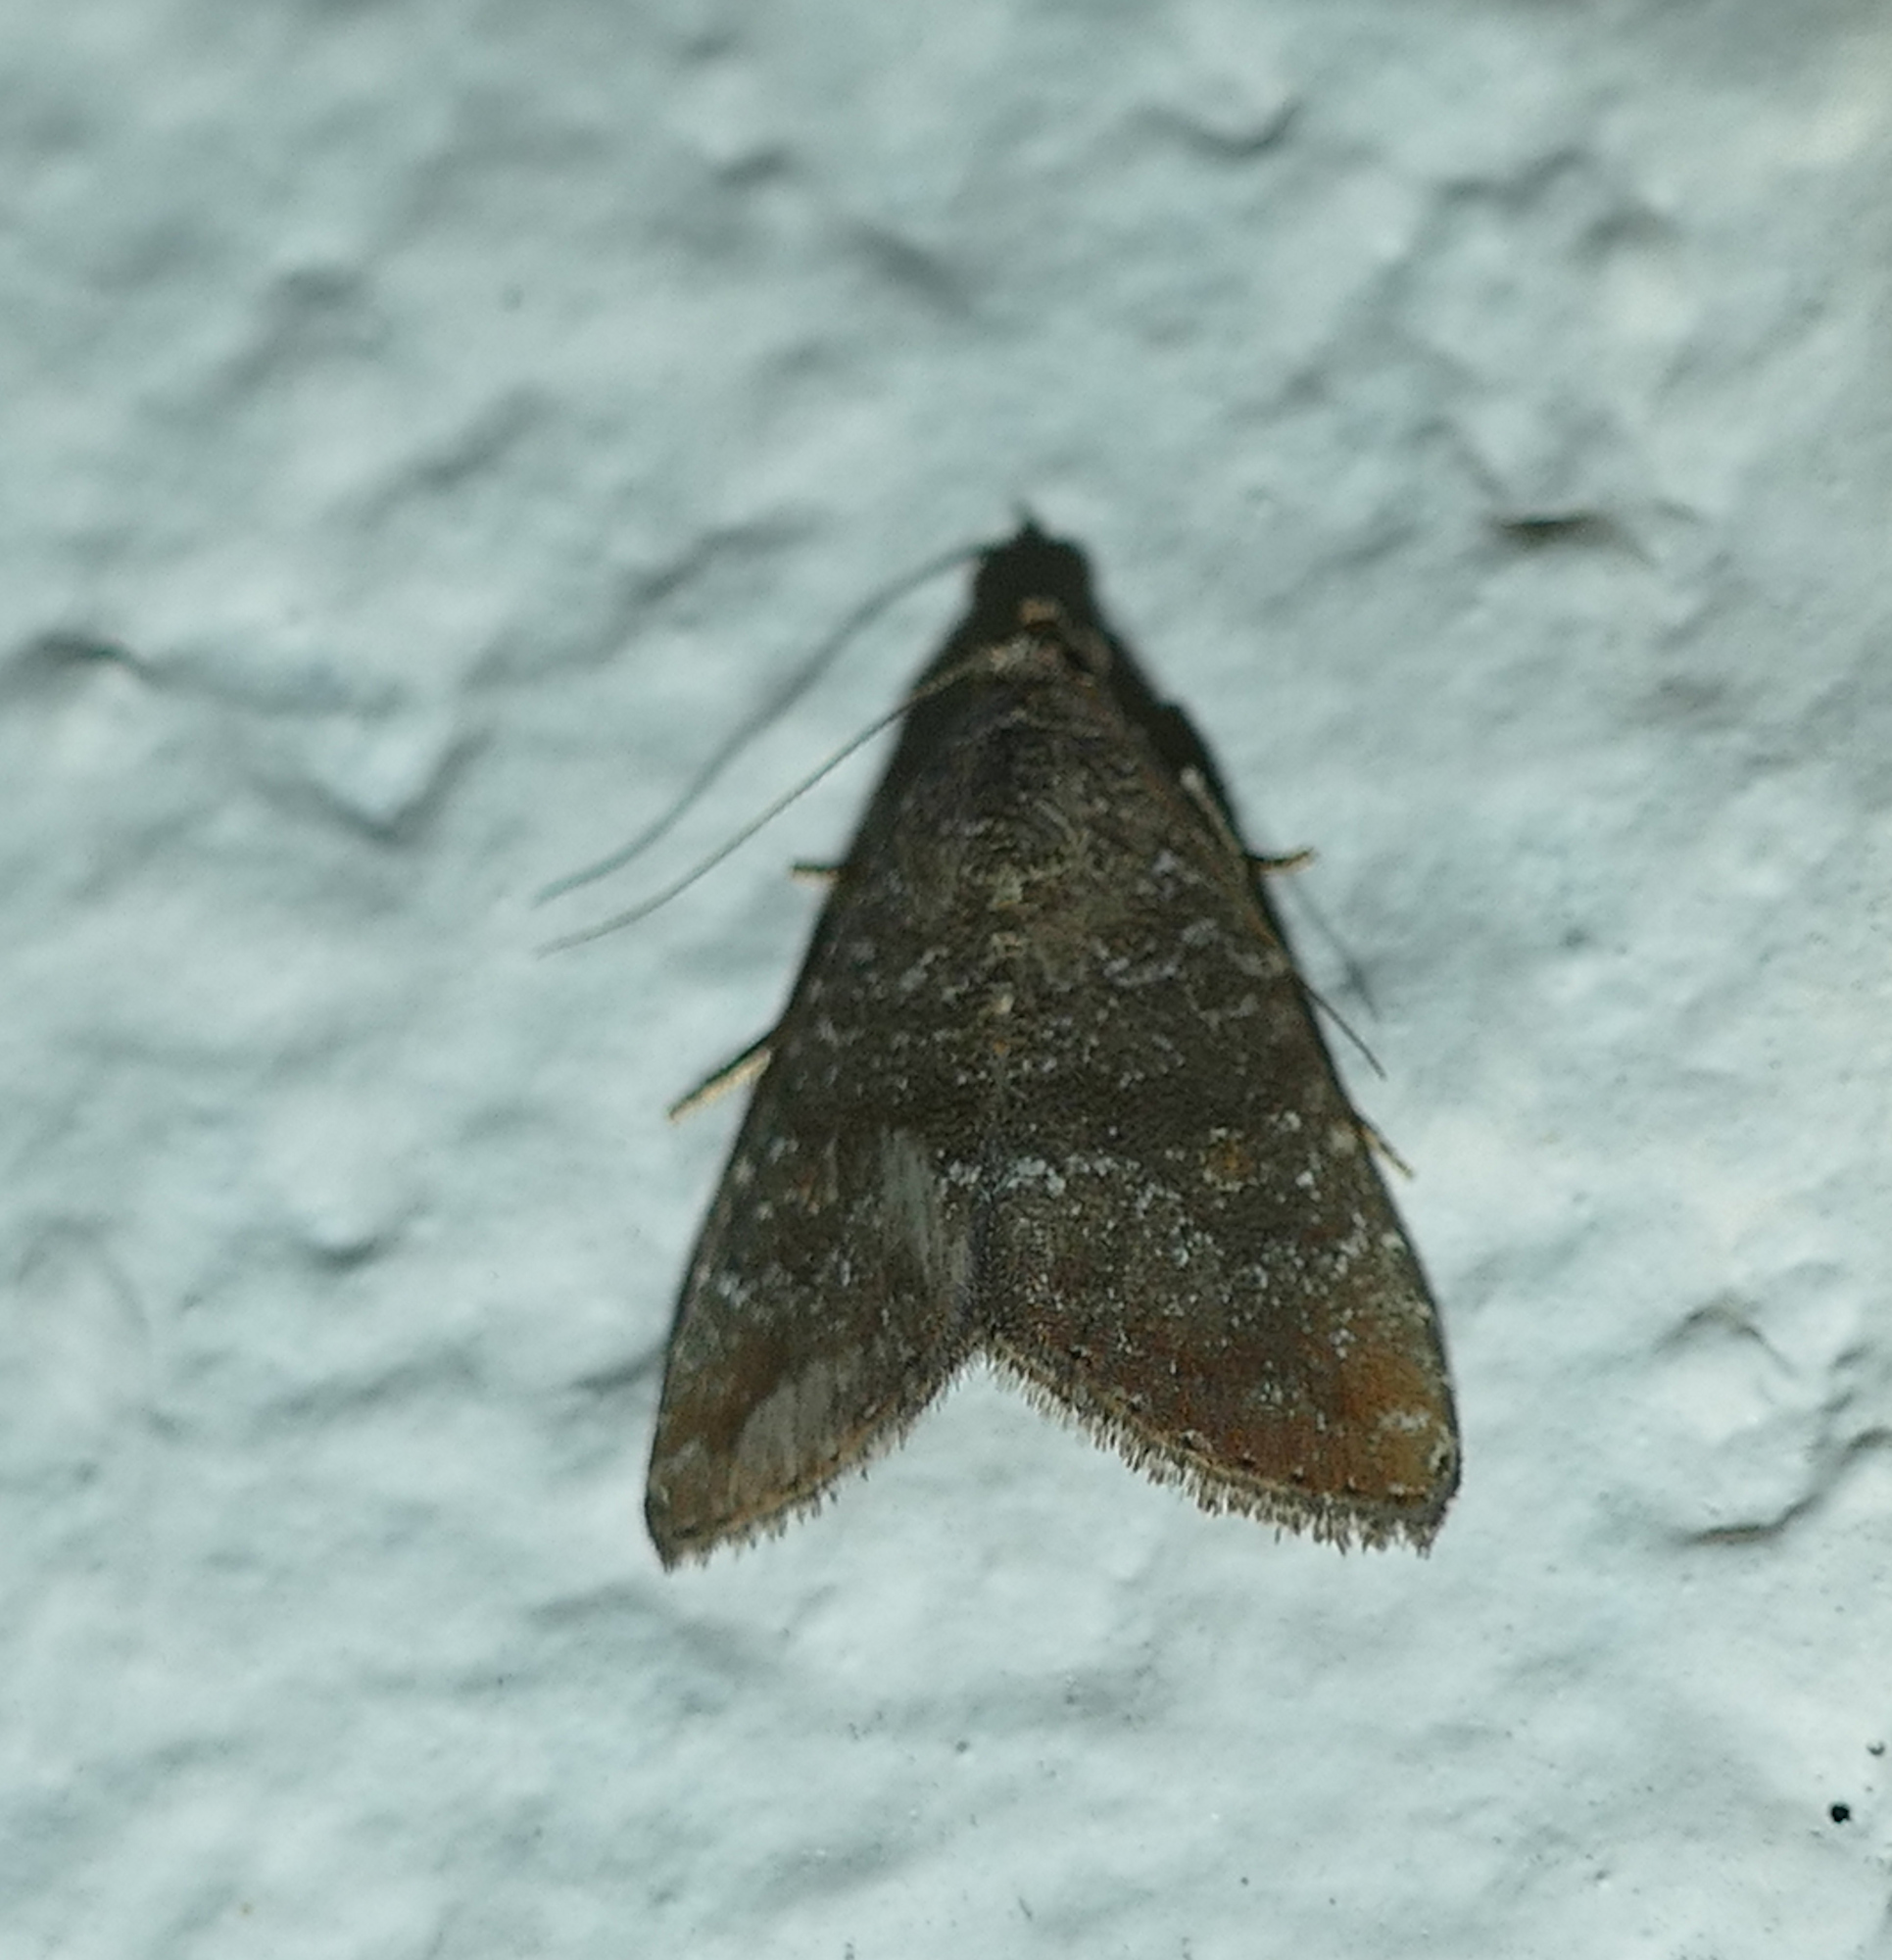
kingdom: Animalia
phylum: Arthropoda
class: Insecta
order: Lepidoptera
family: Noctuidae
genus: Amyna
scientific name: Amyna stricta
